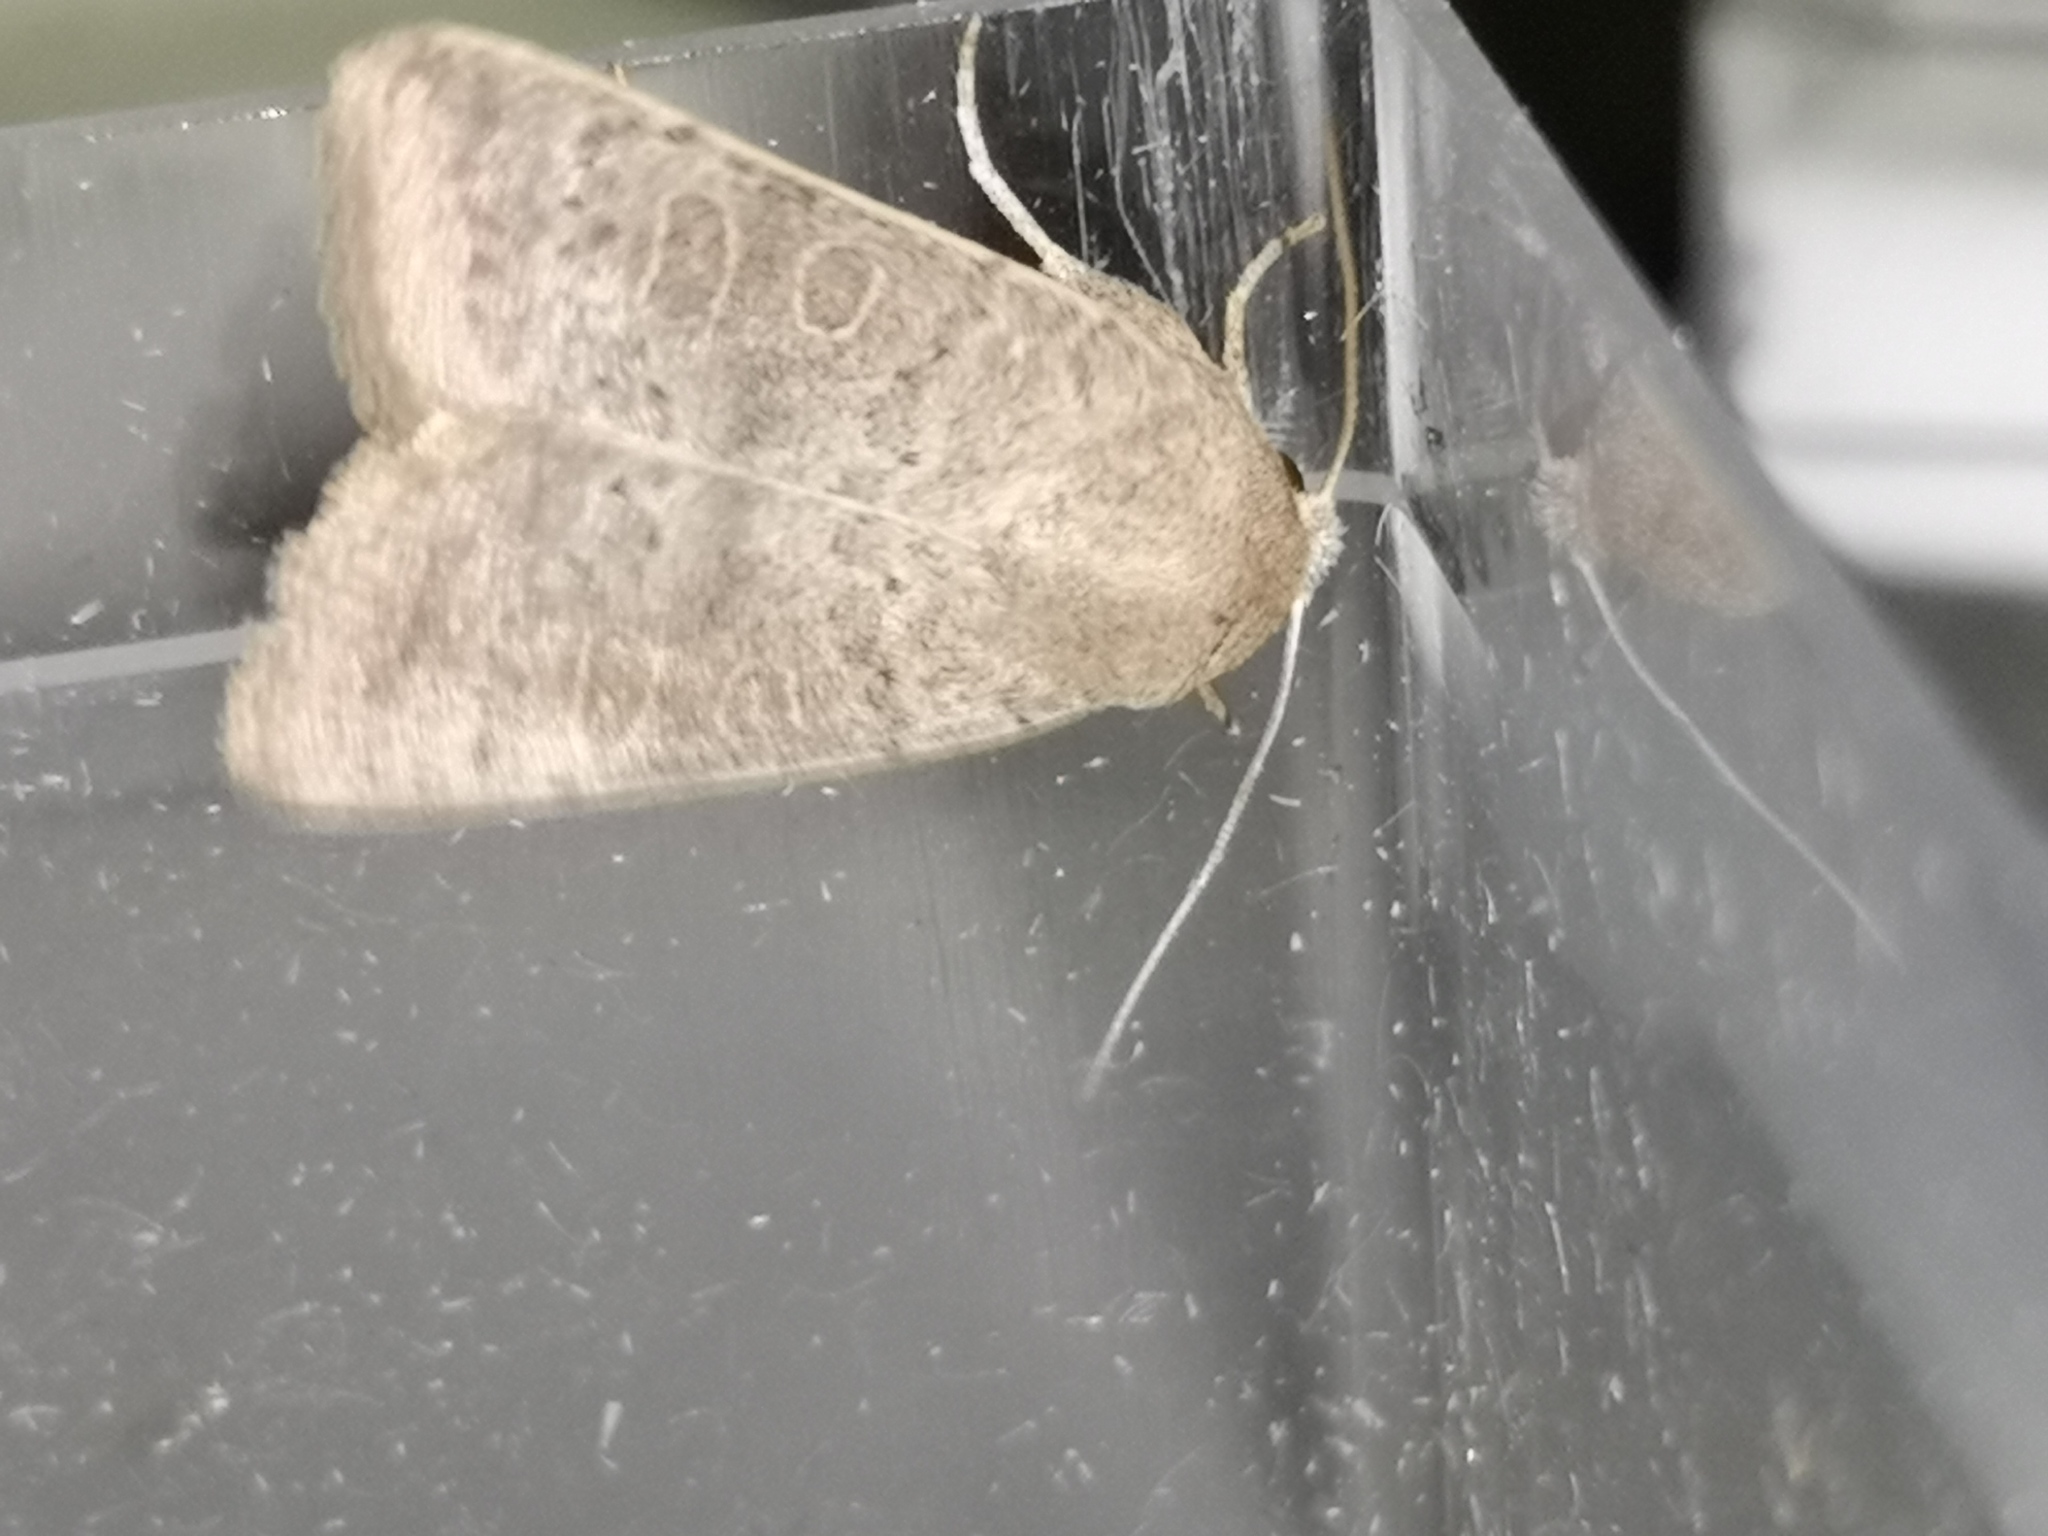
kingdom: Animalia
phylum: Arthropoda
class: Insecta
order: Lepidoptera
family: Noctuidae
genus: Hoplodrina
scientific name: Hoplodrina ambigua
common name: Vine's rustic
